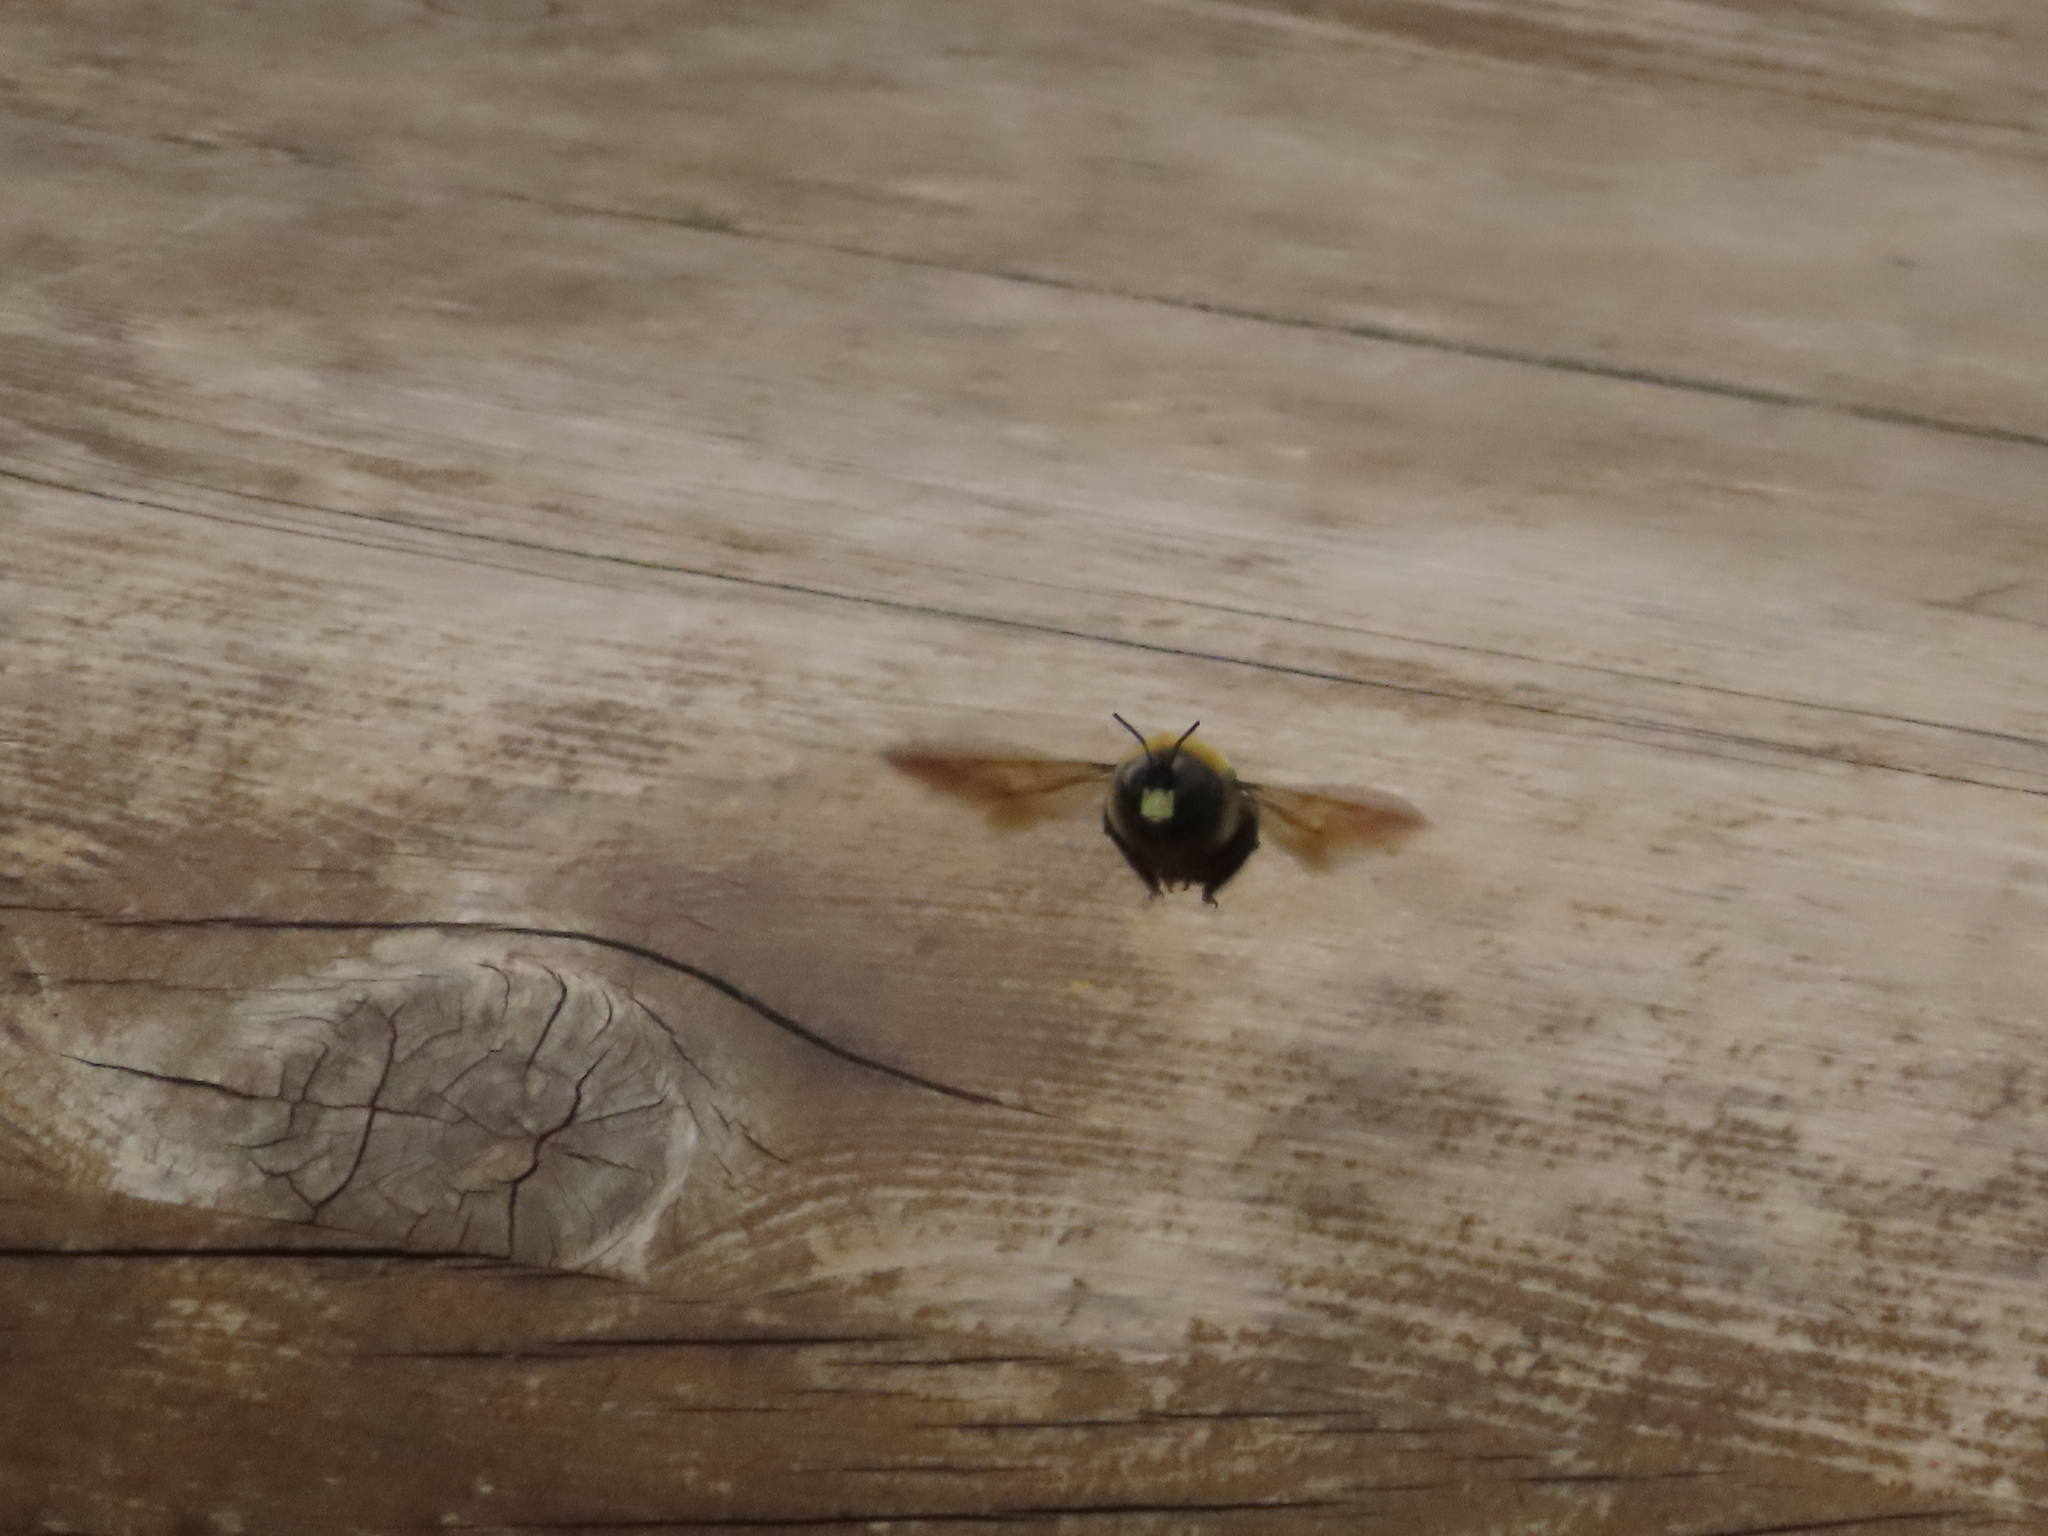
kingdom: Animalia
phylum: Arthropoda
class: Insecta
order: Hymenoptera
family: Apidae
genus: Xylocopa
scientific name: Xylocopa virginica
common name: Carpenter bee
